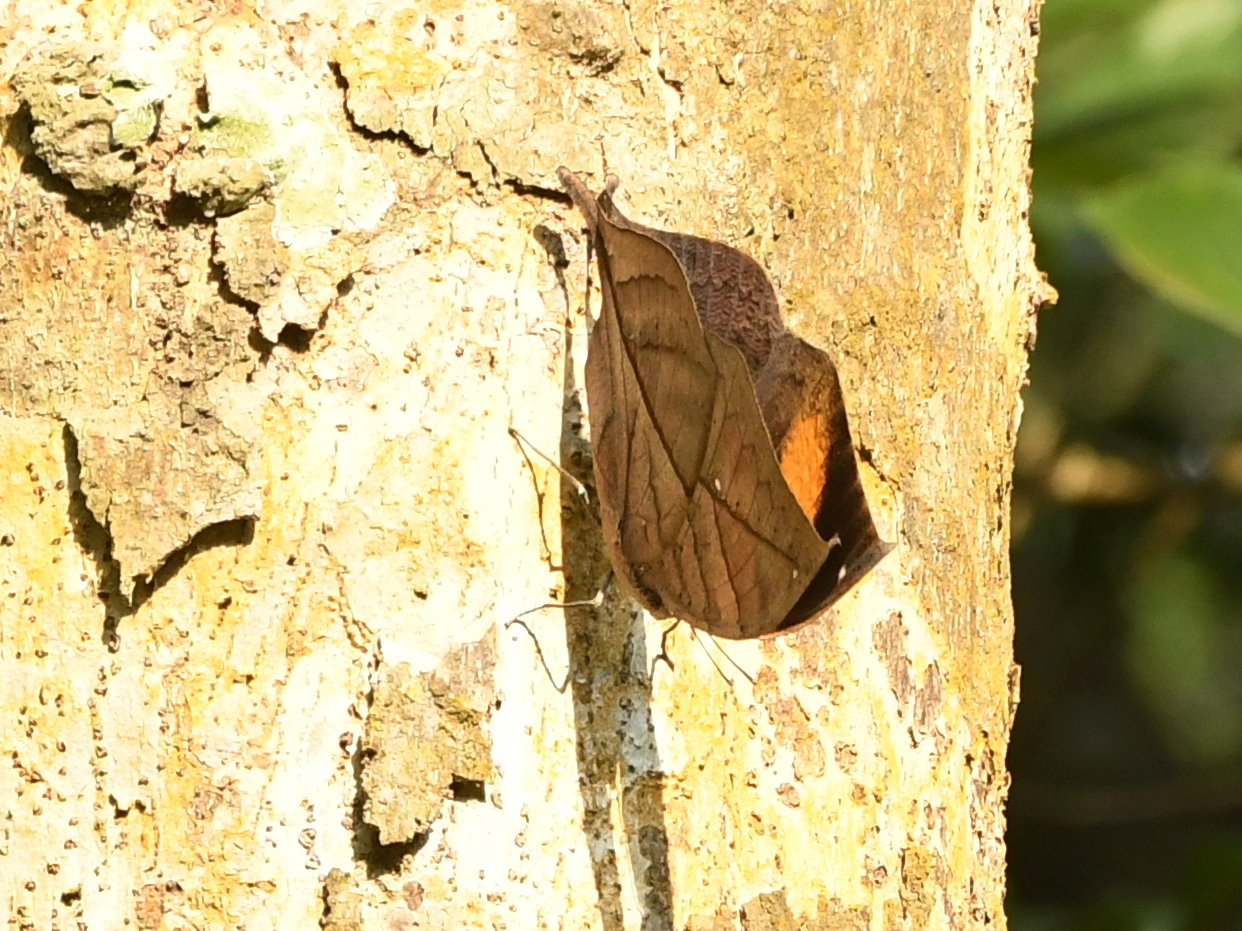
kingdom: Animalia
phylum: Arthropoda
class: Insecta
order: Lepidoptera
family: Nymphalidae
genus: Kallima
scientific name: Kallima inachus
